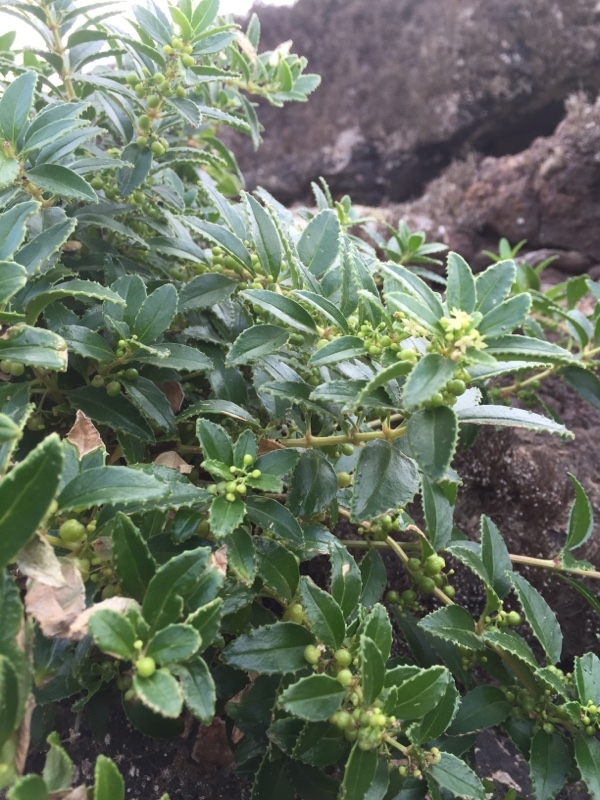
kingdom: Plantae
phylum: Tracheophyta
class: Magnoliopsida
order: Gentianales
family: Rubiaceae
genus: Rubia
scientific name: Rubia fruticosa
